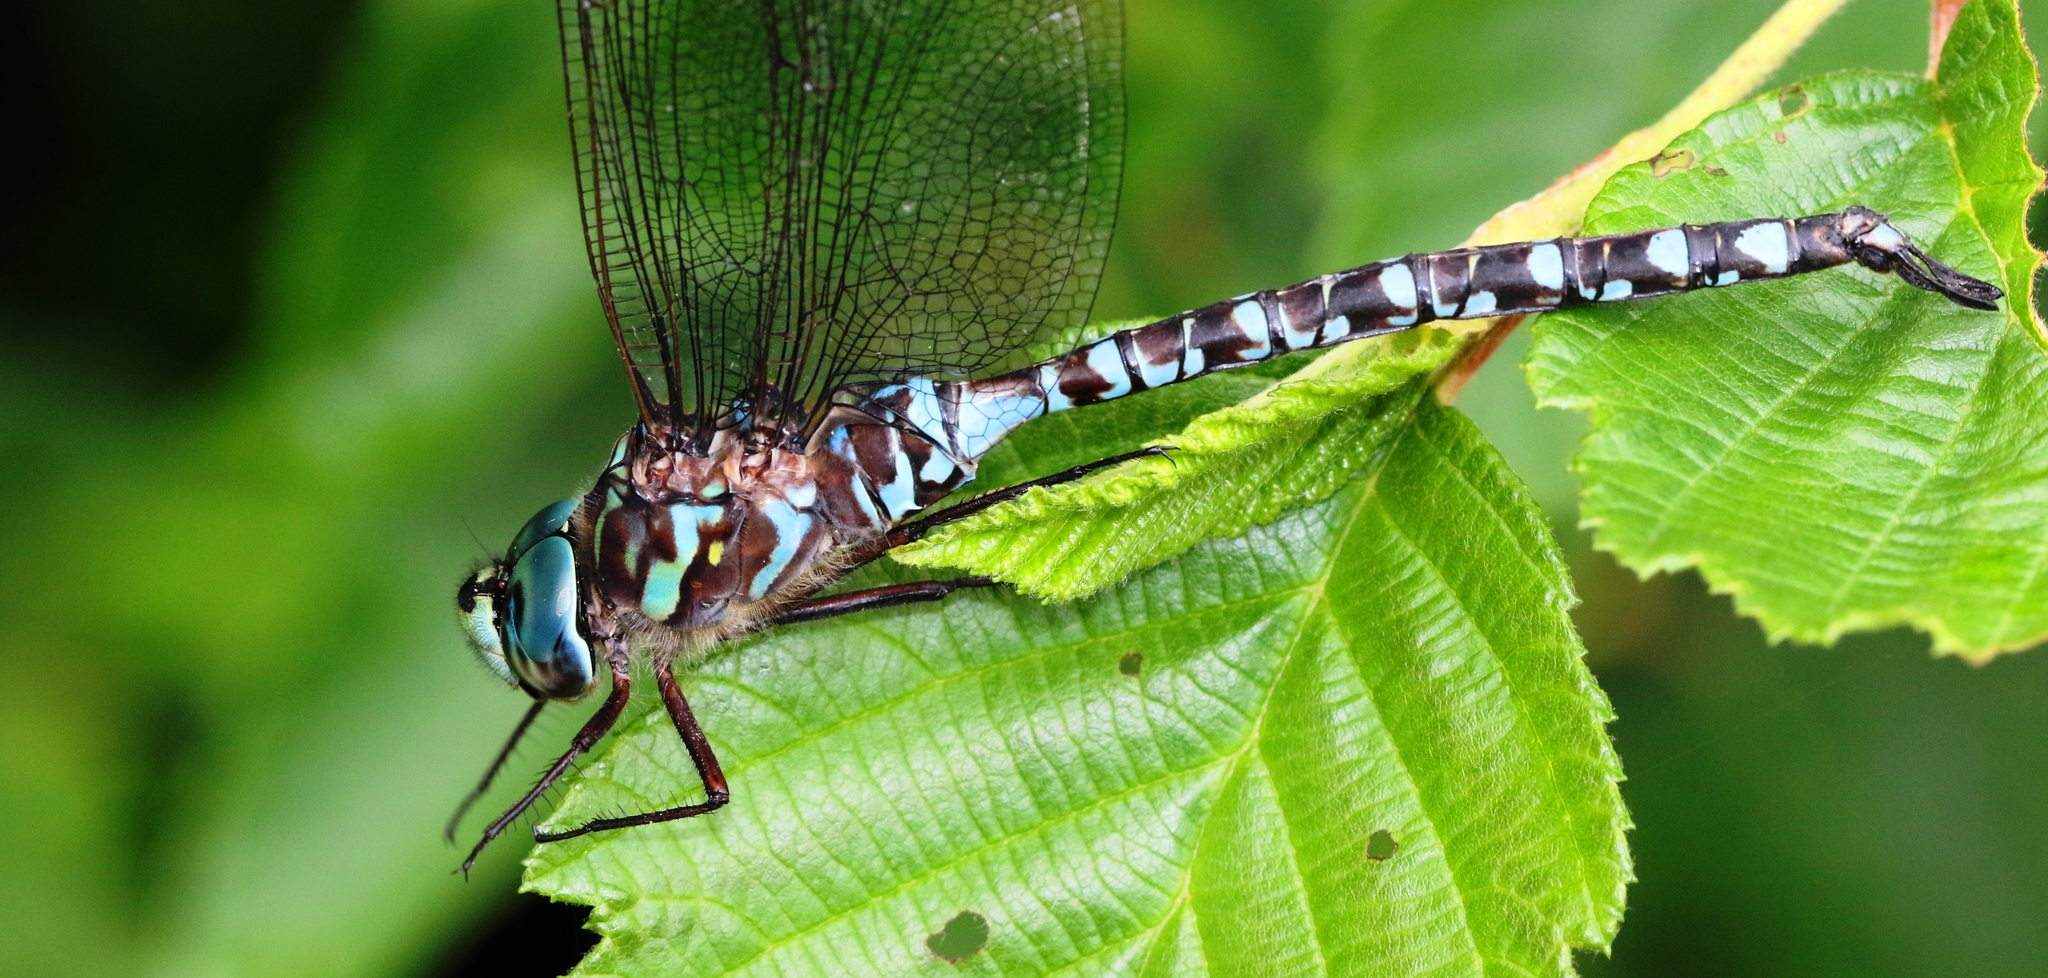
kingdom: Animalia
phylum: Arthropoda
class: Insecta
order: Odonata
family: Aeshnidae
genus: Aeshna
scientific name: Aeshna canadensis
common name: Canada darner
